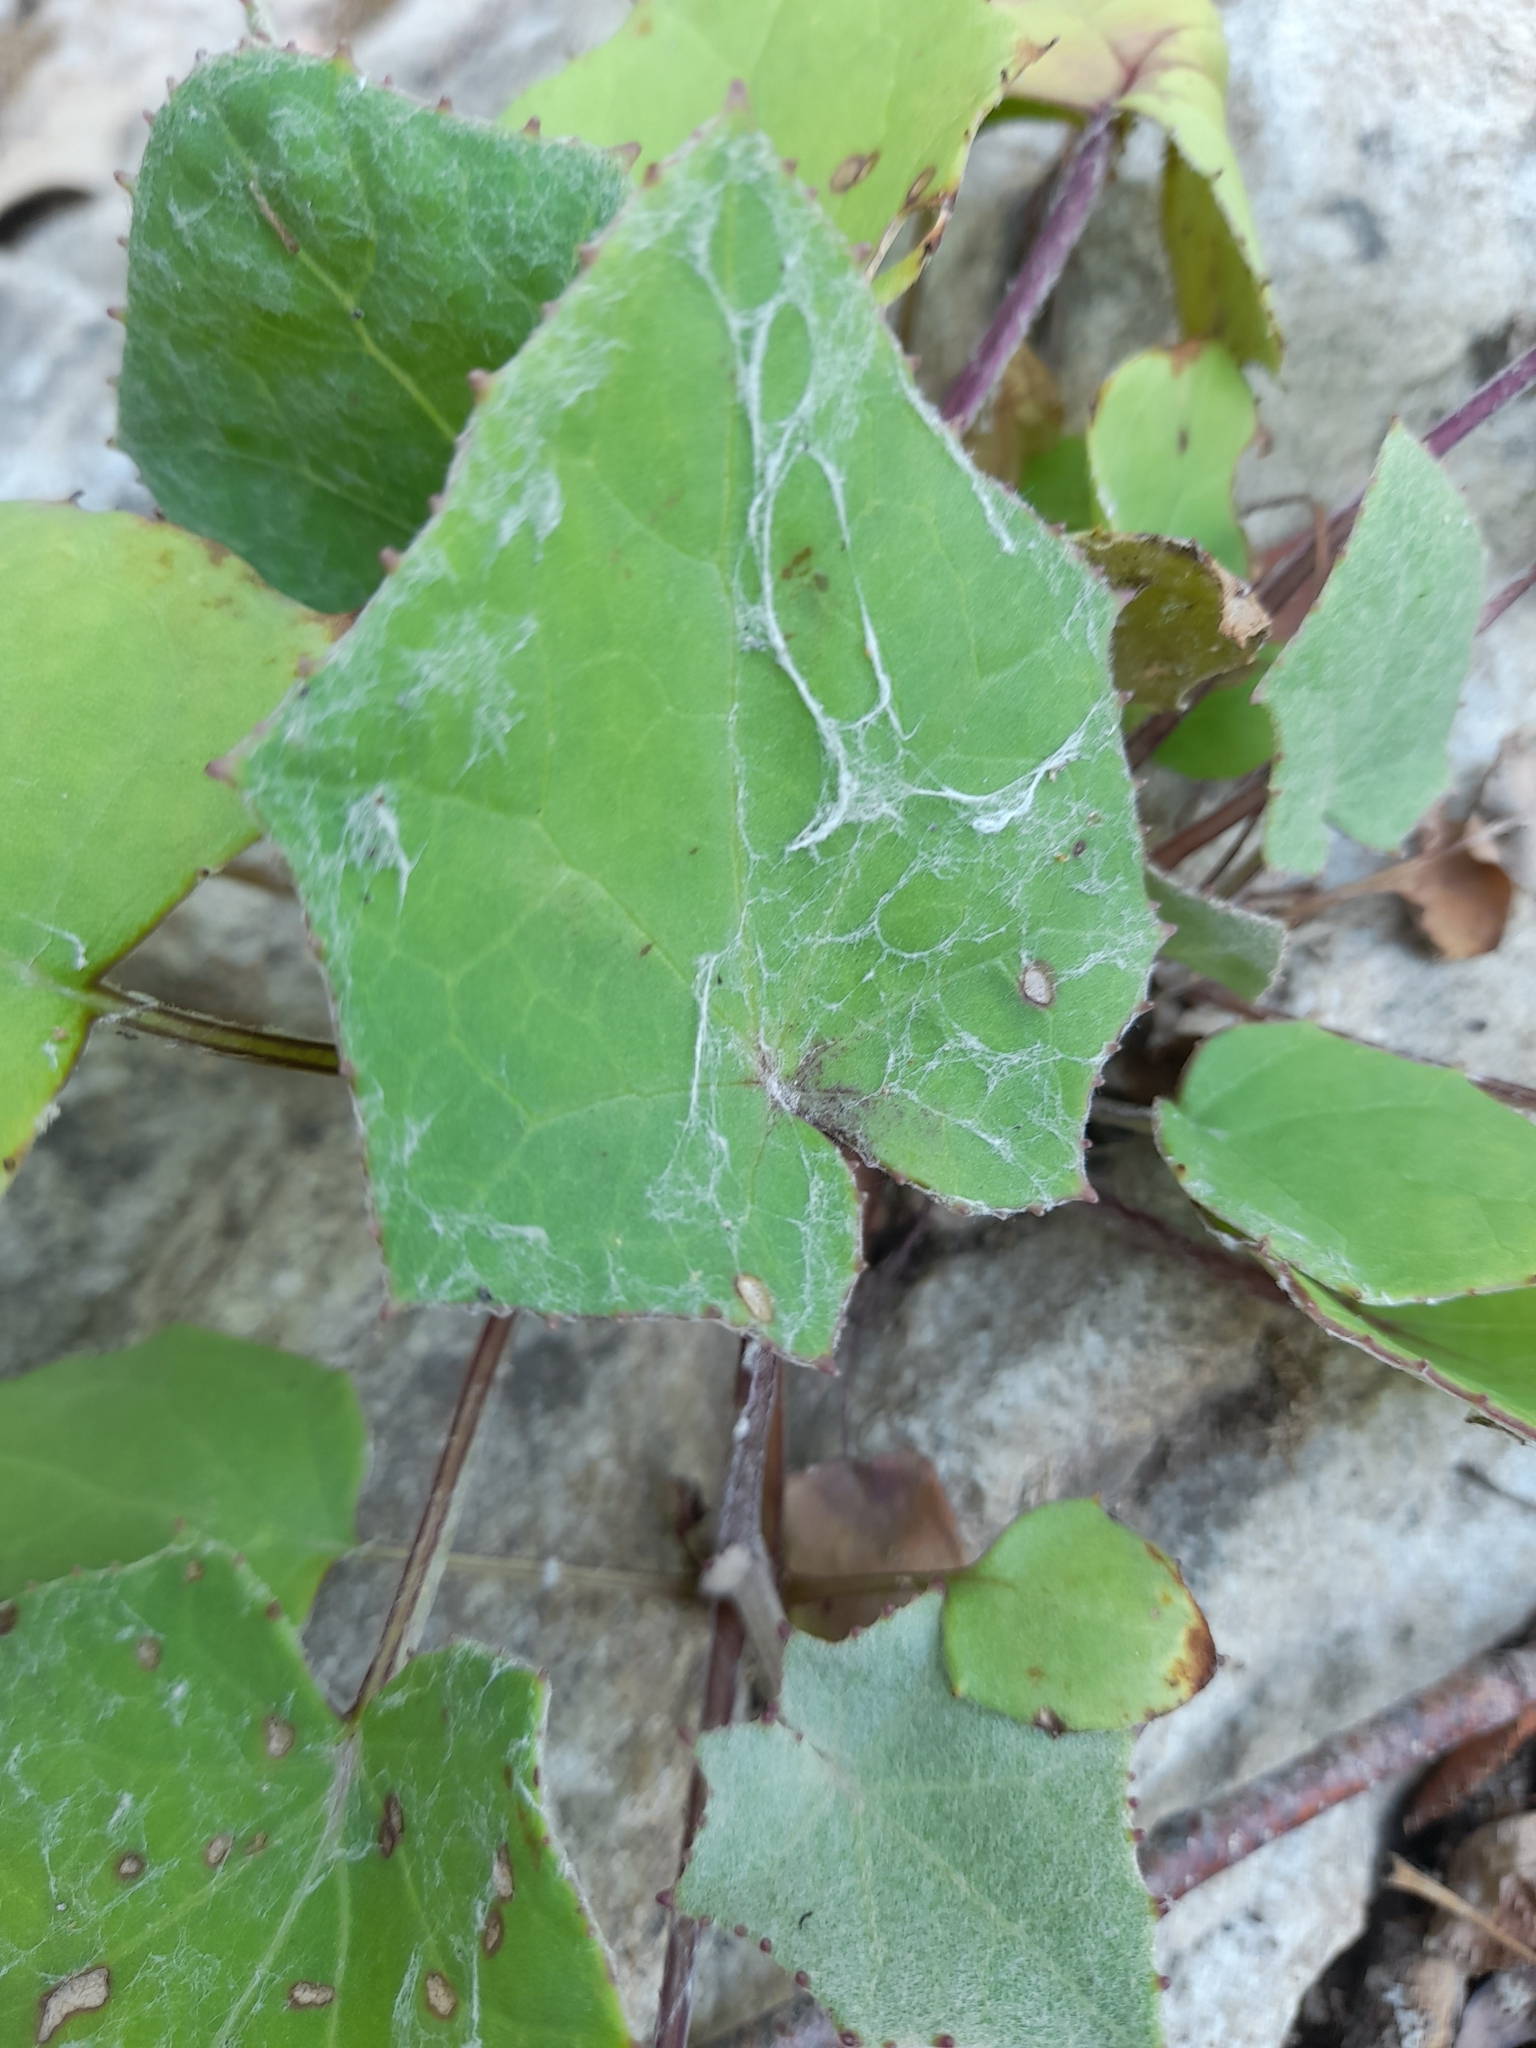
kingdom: Plantae
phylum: Tracheophyta
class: Magnoliopsida
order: Asterales
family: Asteraceae
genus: Tussilago
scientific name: Tussilago farfara
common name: Coltsfoot
